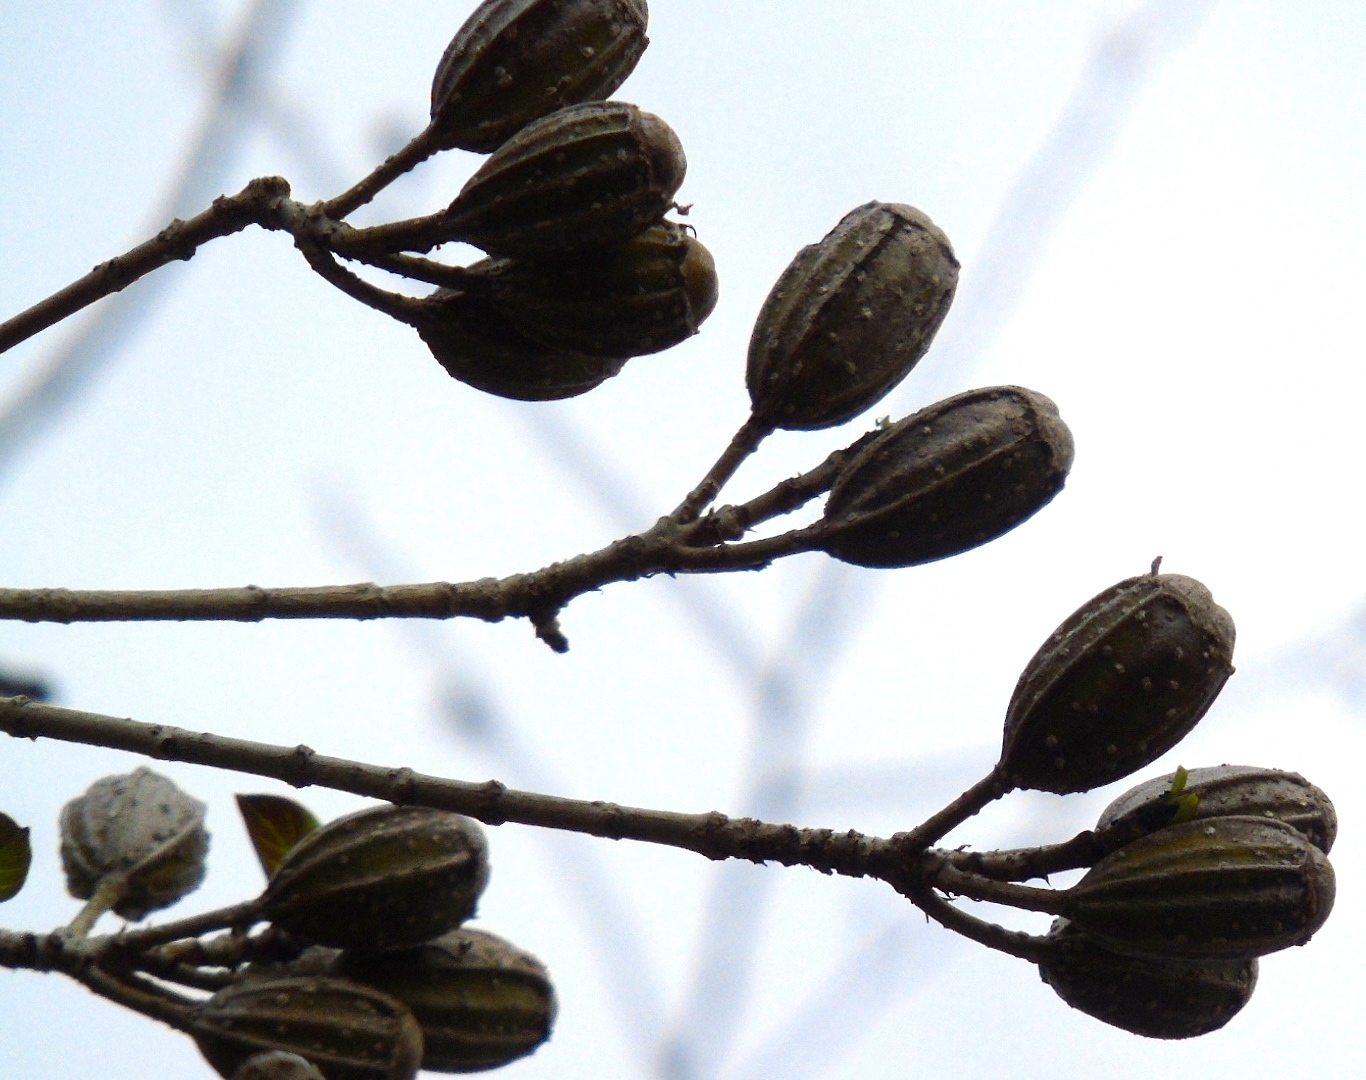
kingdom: Plantae
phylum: Tracheophyta
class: Magnoliopsida
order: Gentianales
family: Rubiaceae
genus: Hintonia
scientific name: Hintonia latiflora
